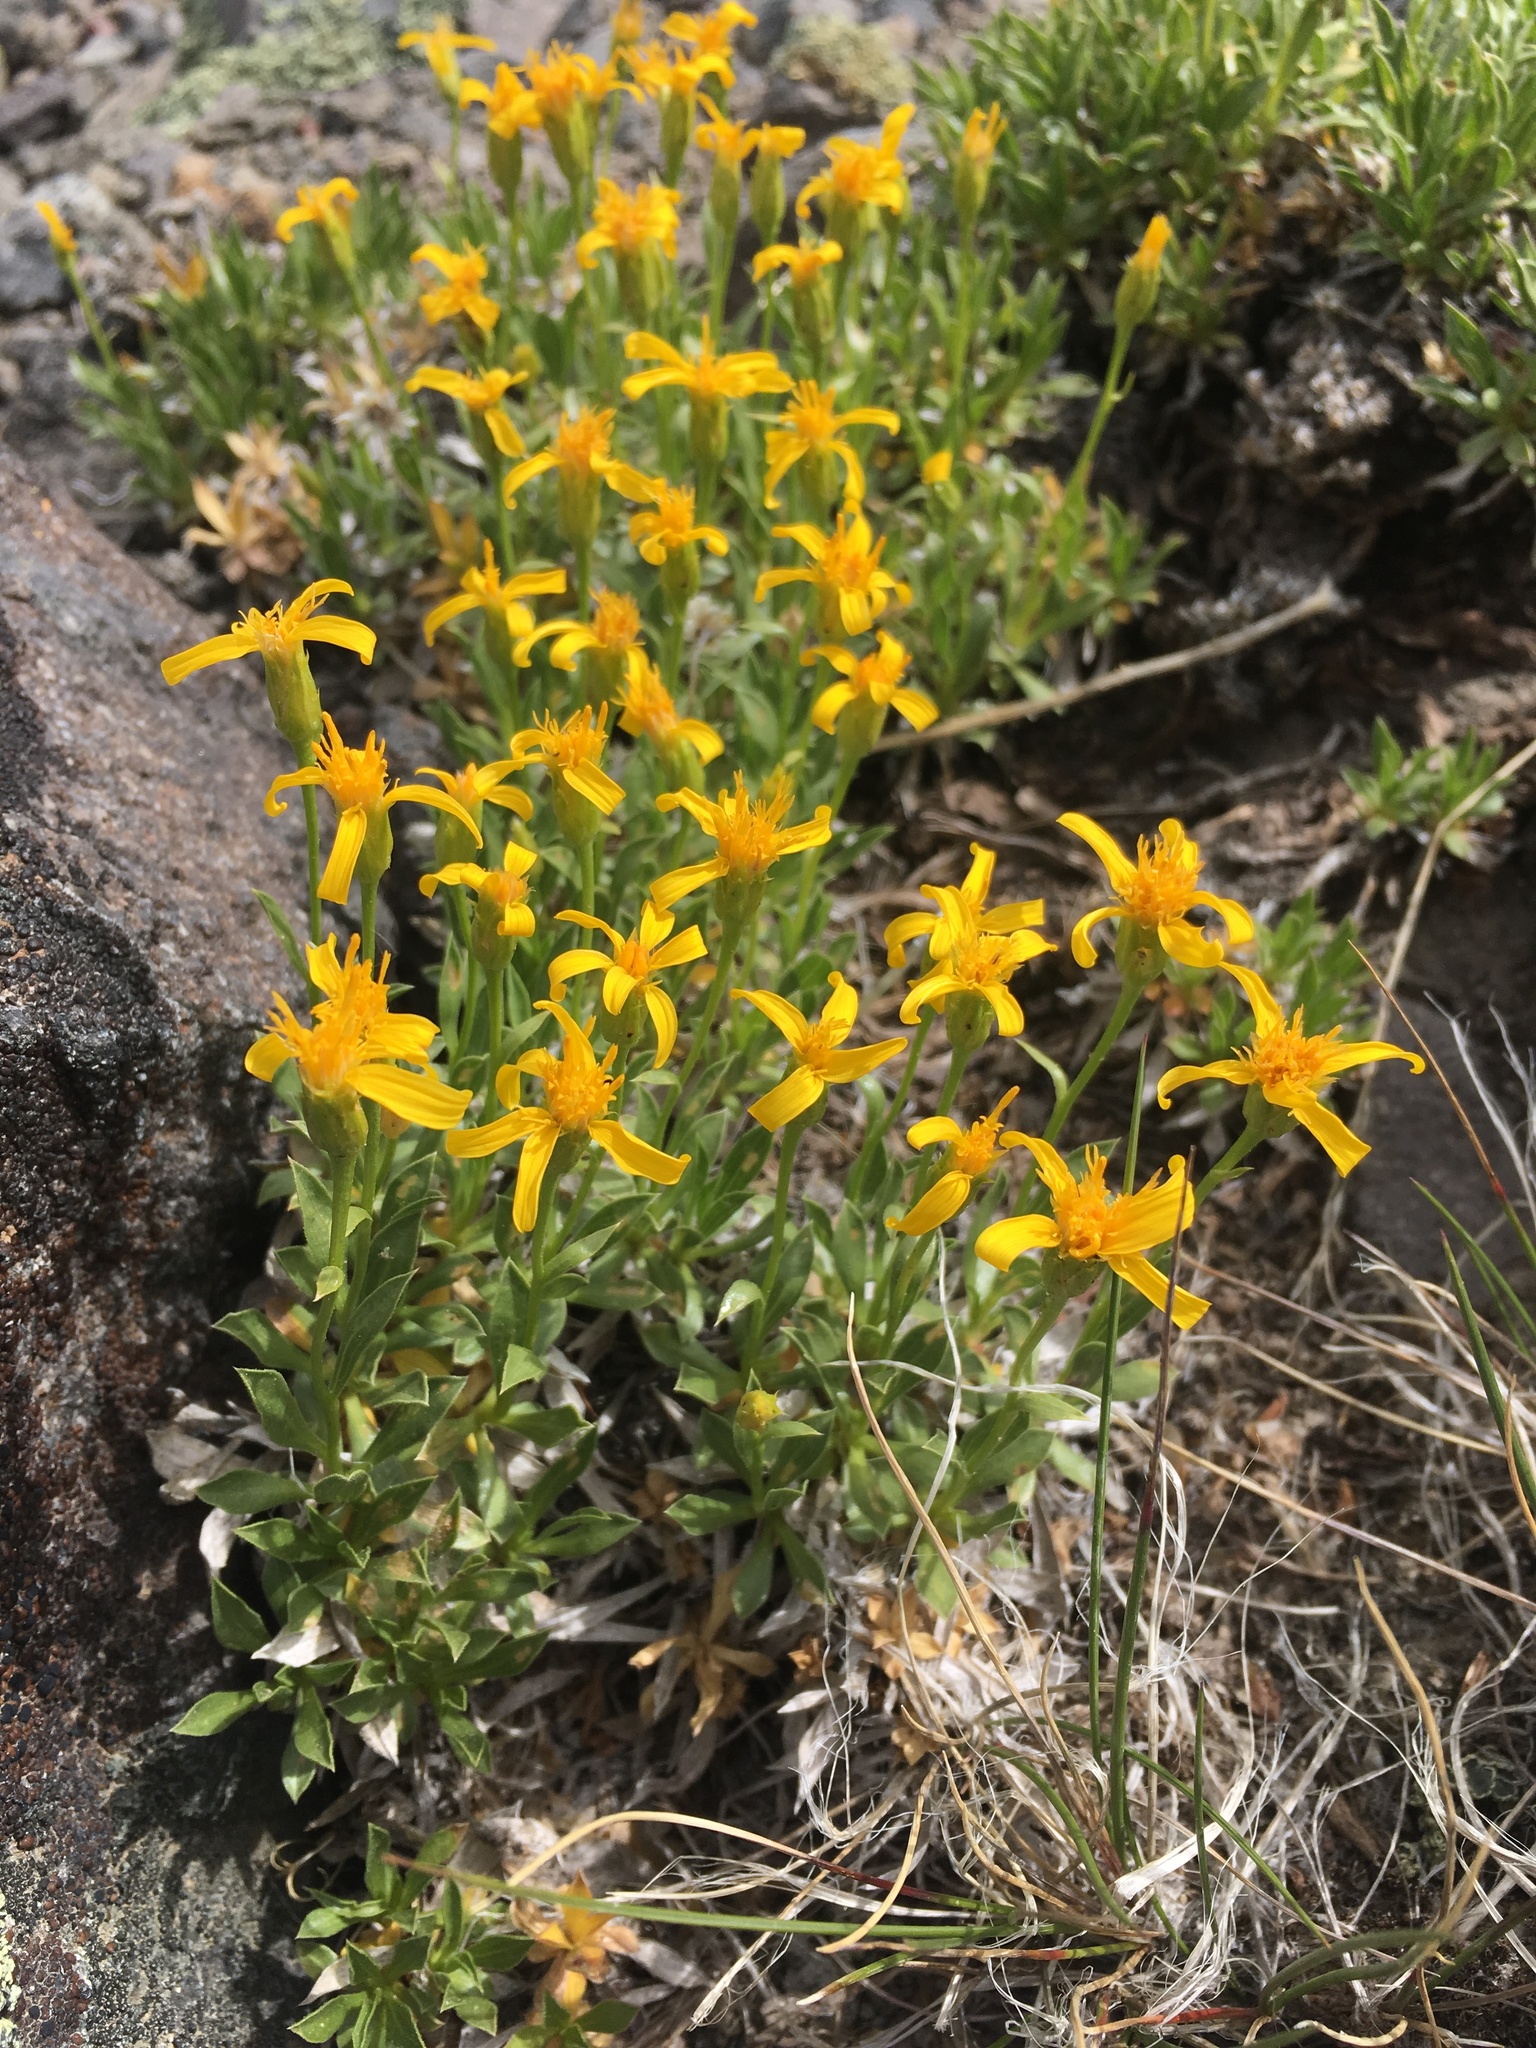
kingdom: Plantae
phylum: Tracheophyta
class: Magnoliopsida
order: Asterales
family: Asteraceae
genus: Stenotus
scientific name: Stenotus acaulis
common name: Stemless goldenweed
